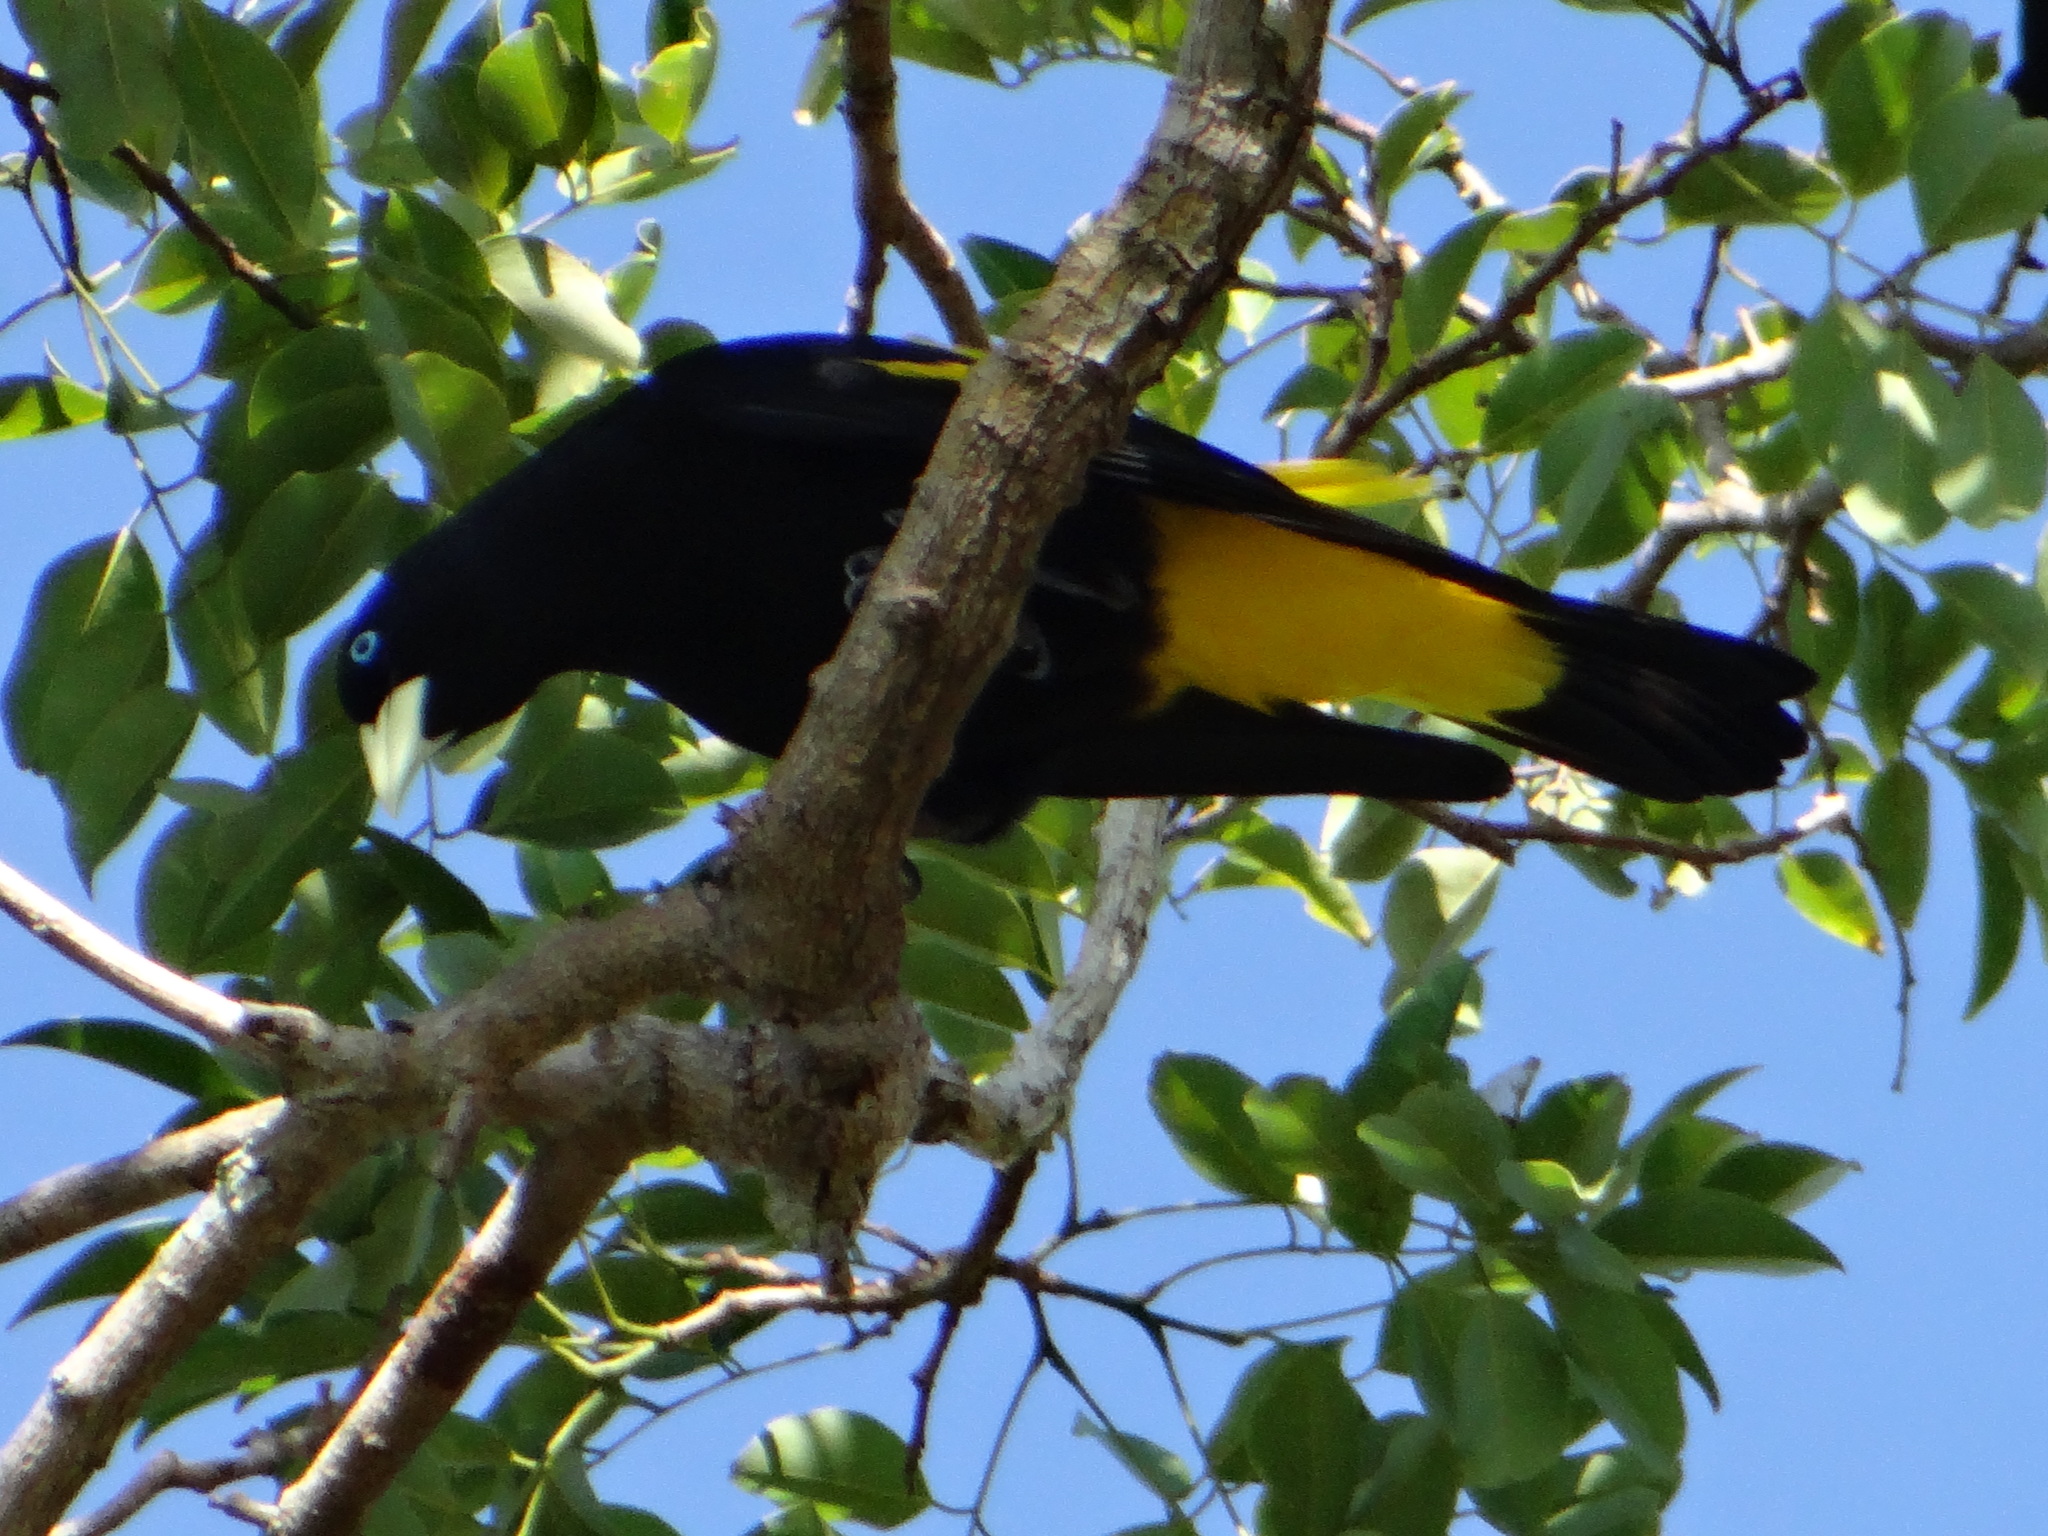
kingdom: Animalia
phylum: Chordata
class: Aves
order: Passeriformes
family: Icteridae
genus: Cacicus
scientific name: Cacicus cela
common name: Yellow-rumped cacique
